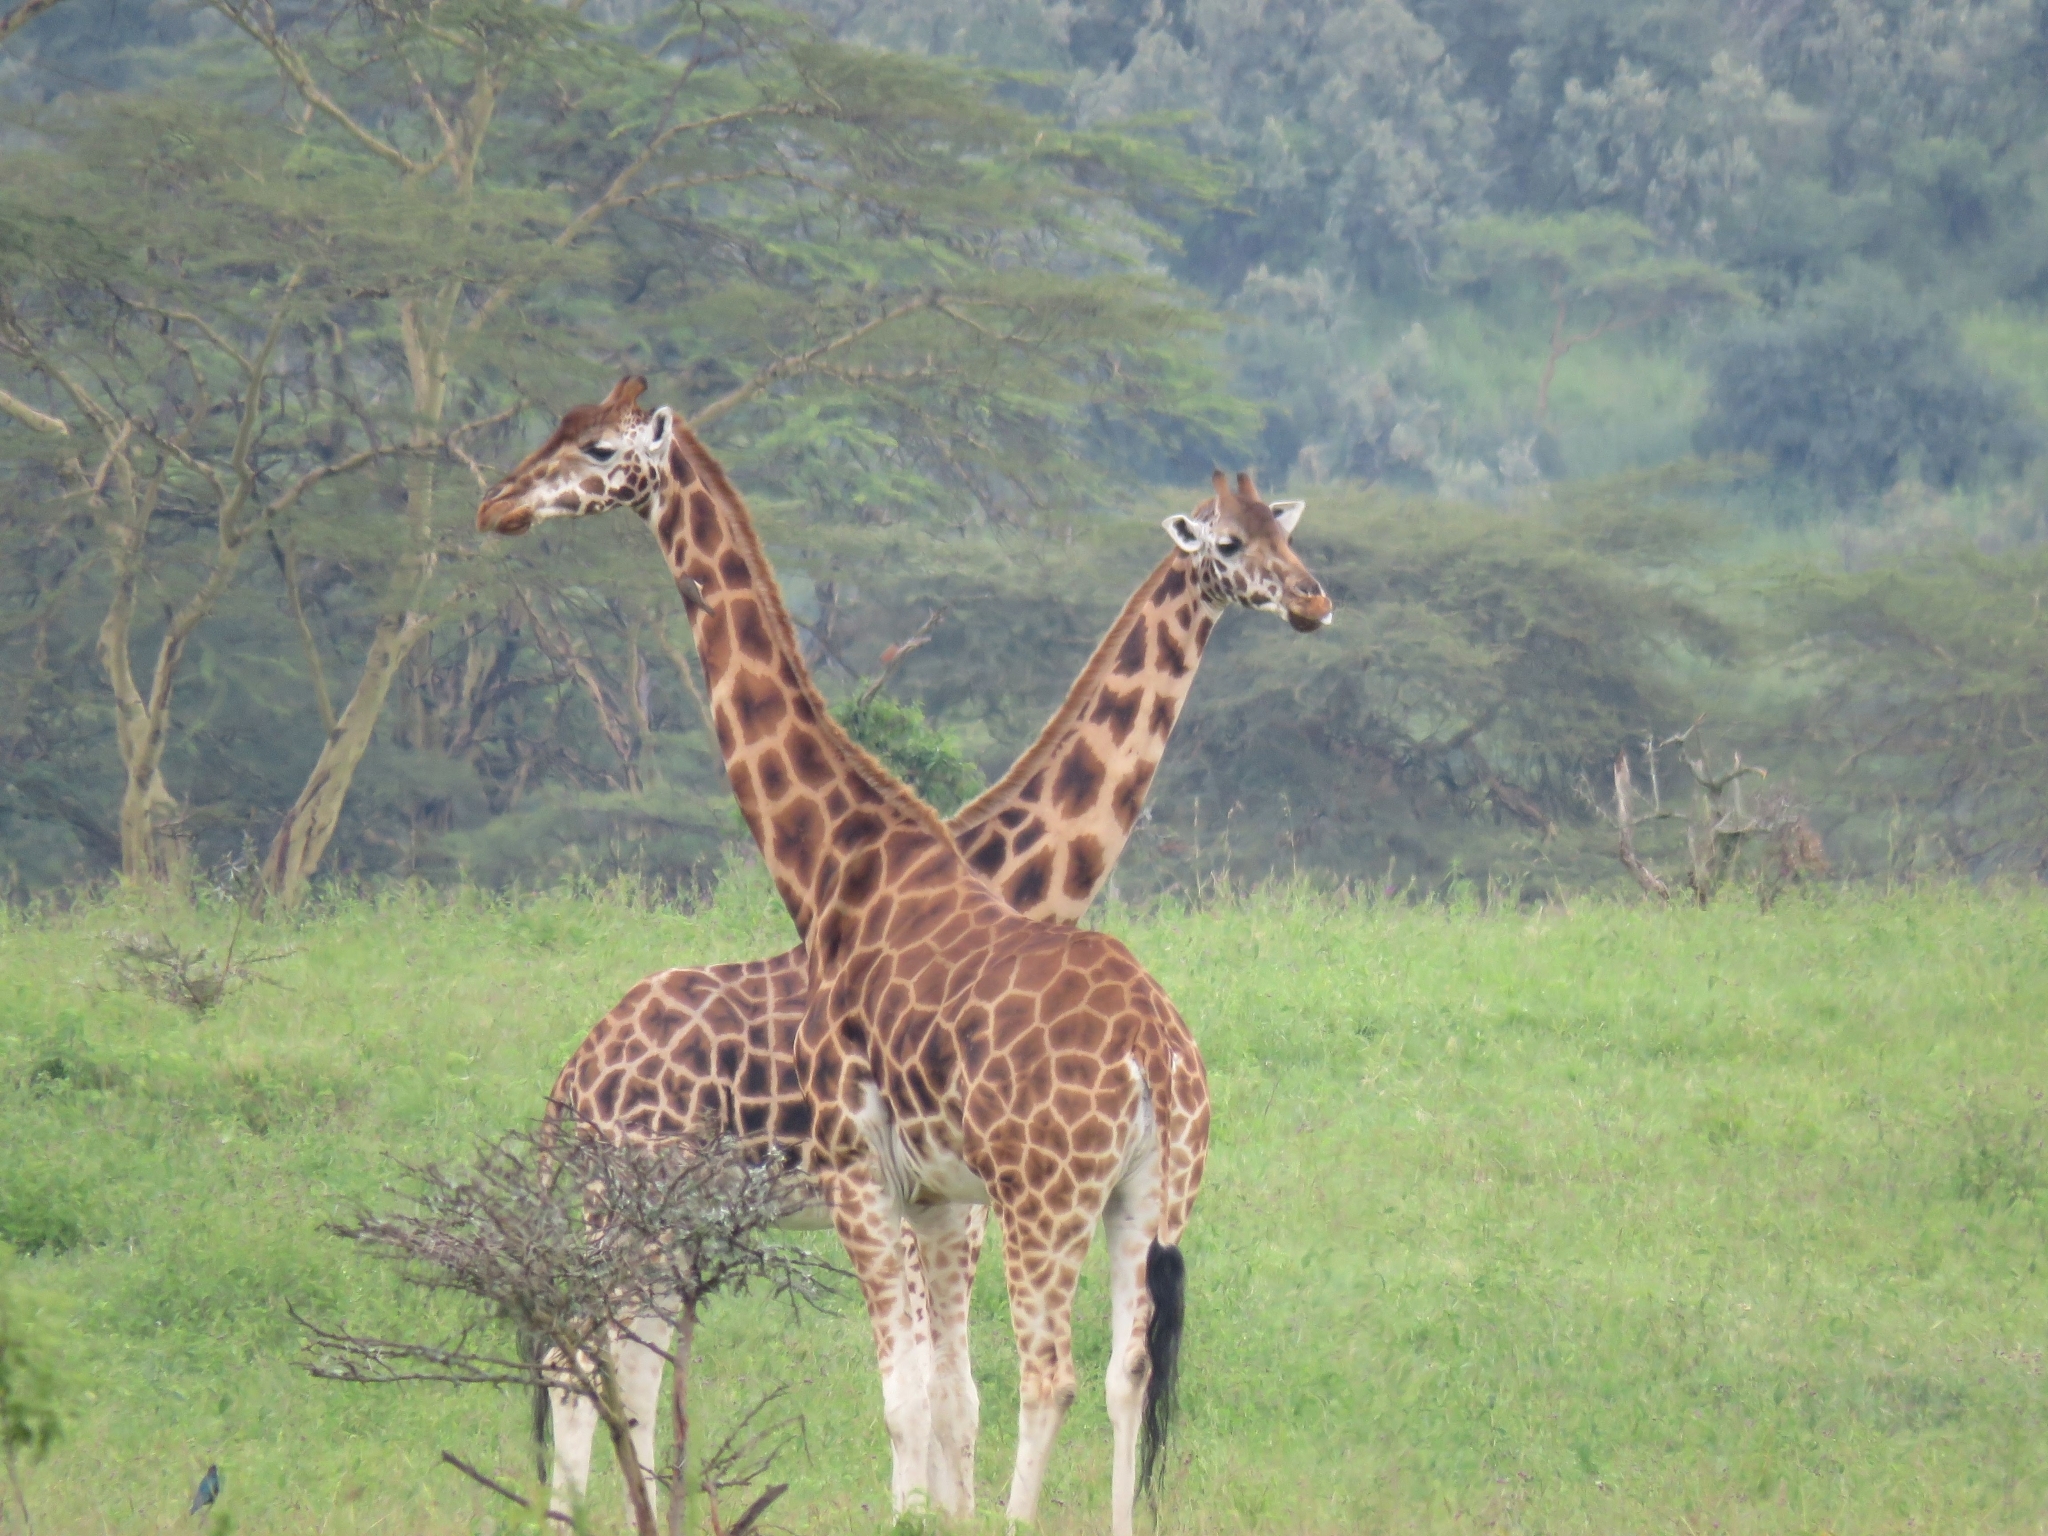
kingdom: Animalia
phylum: Chordata
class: Mammalia
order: Artiodactyla
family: Giraffidae
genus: Giraffa
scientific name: Giraffa camelopardalis
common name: Giraffe
